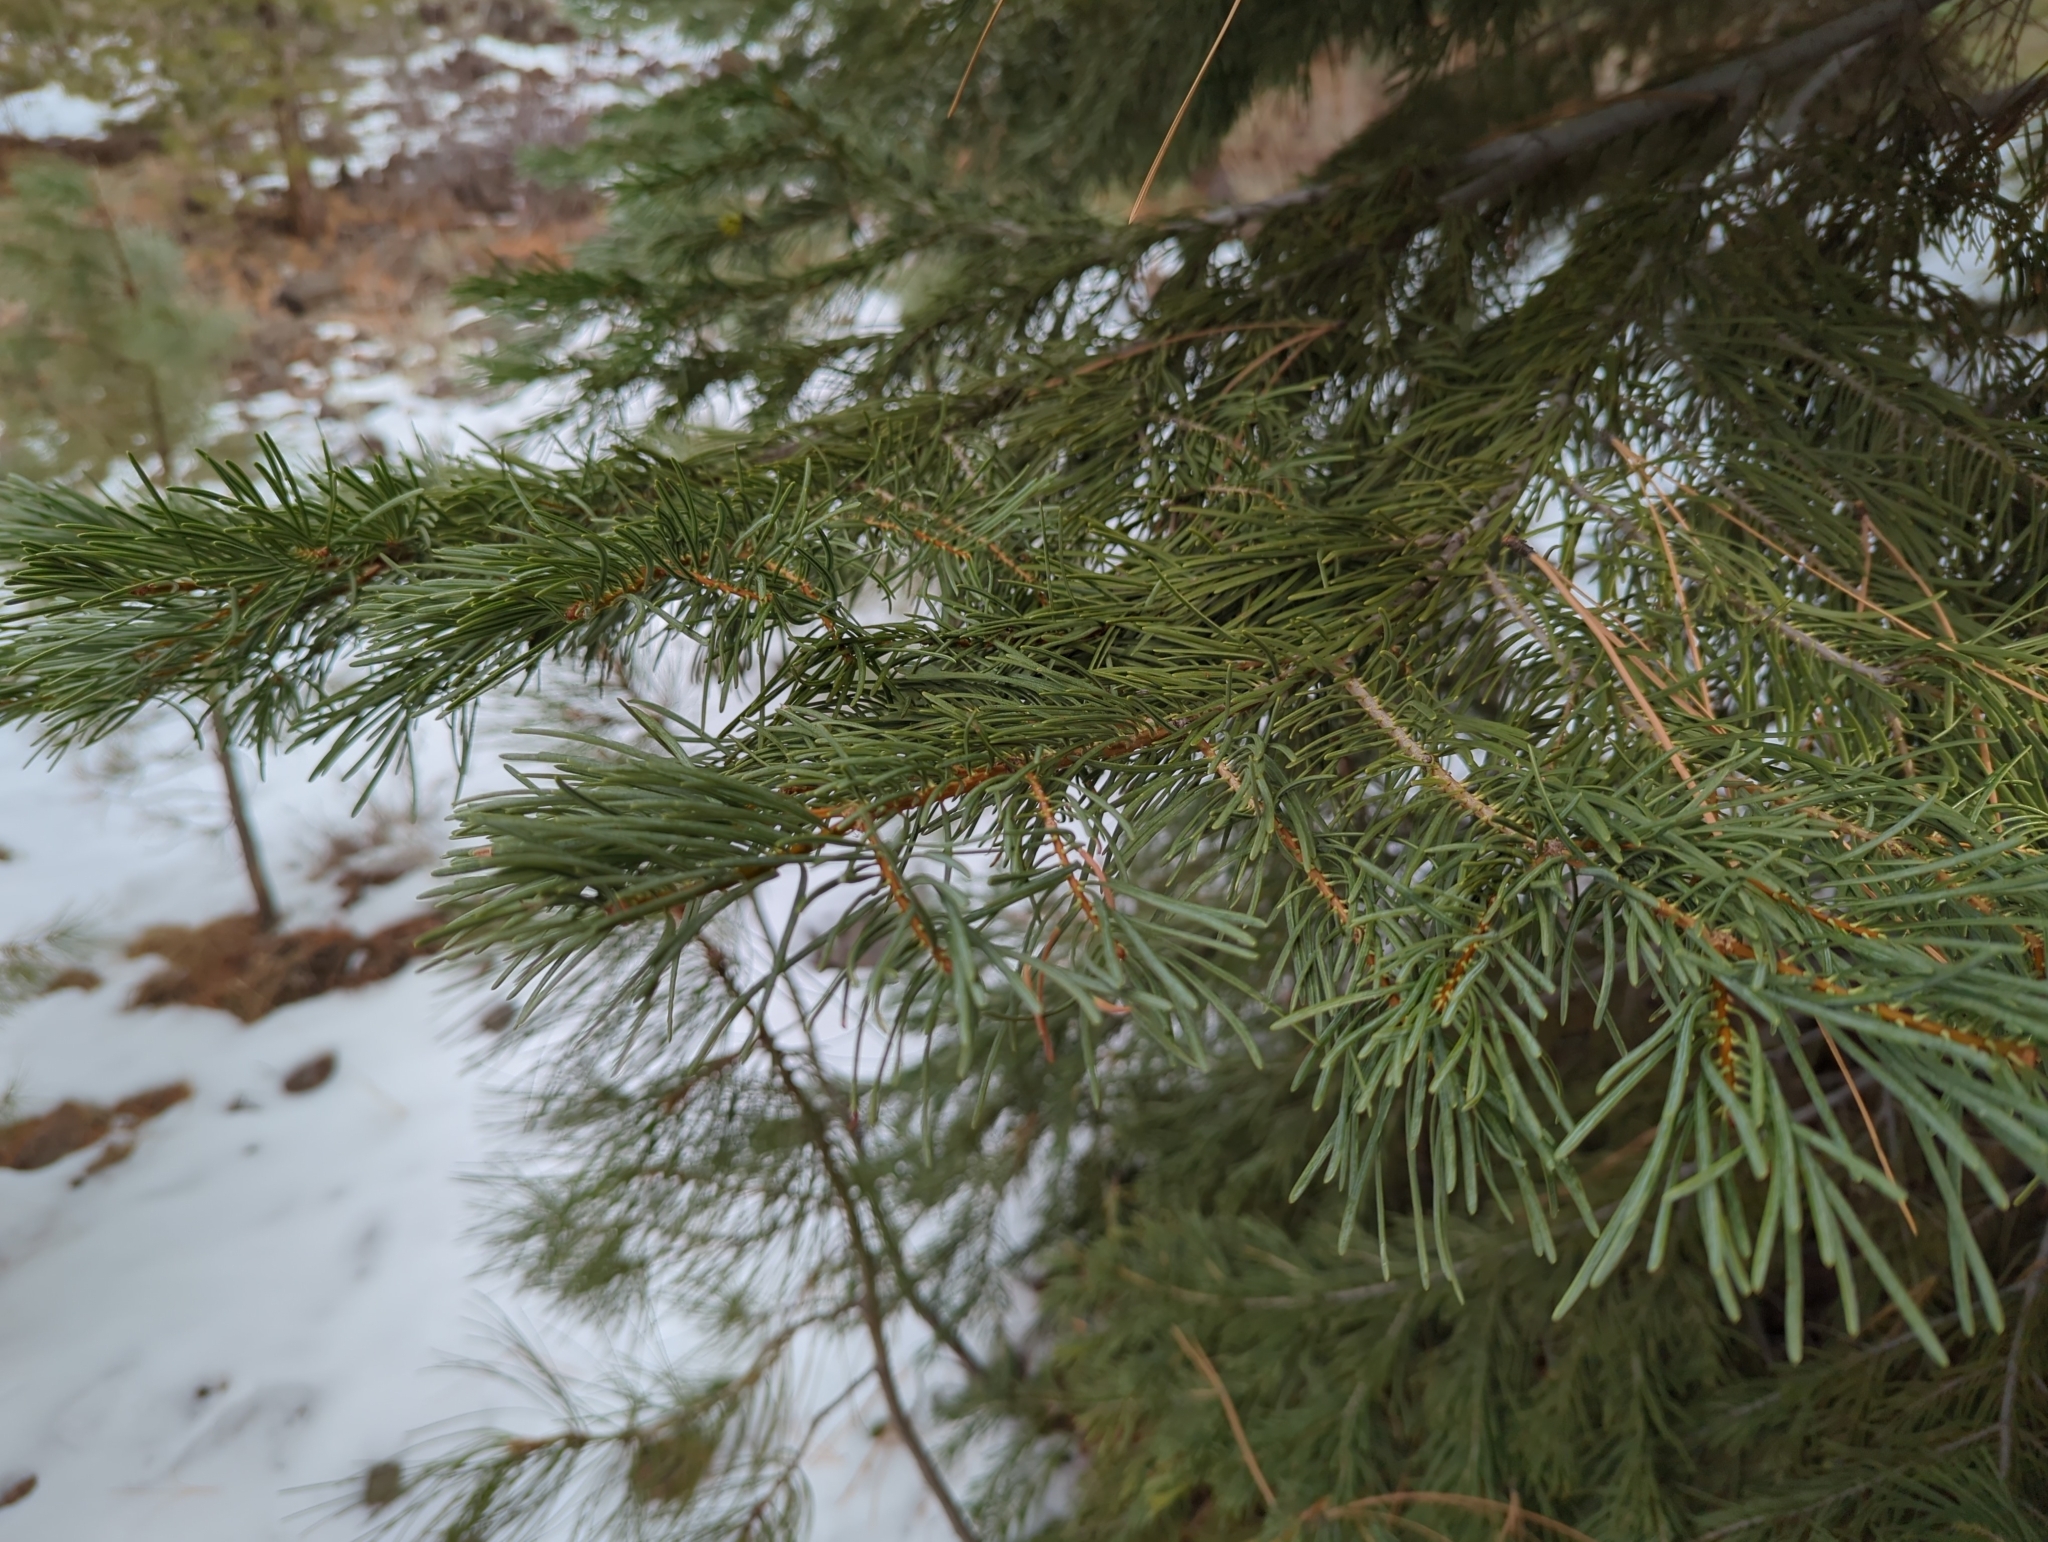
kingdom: Plantae
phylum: Tracheophyta
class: Pinopsida
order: Pinales
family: Pinaceae
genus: Abies
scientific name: Abies concolor
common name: Colorado fir
